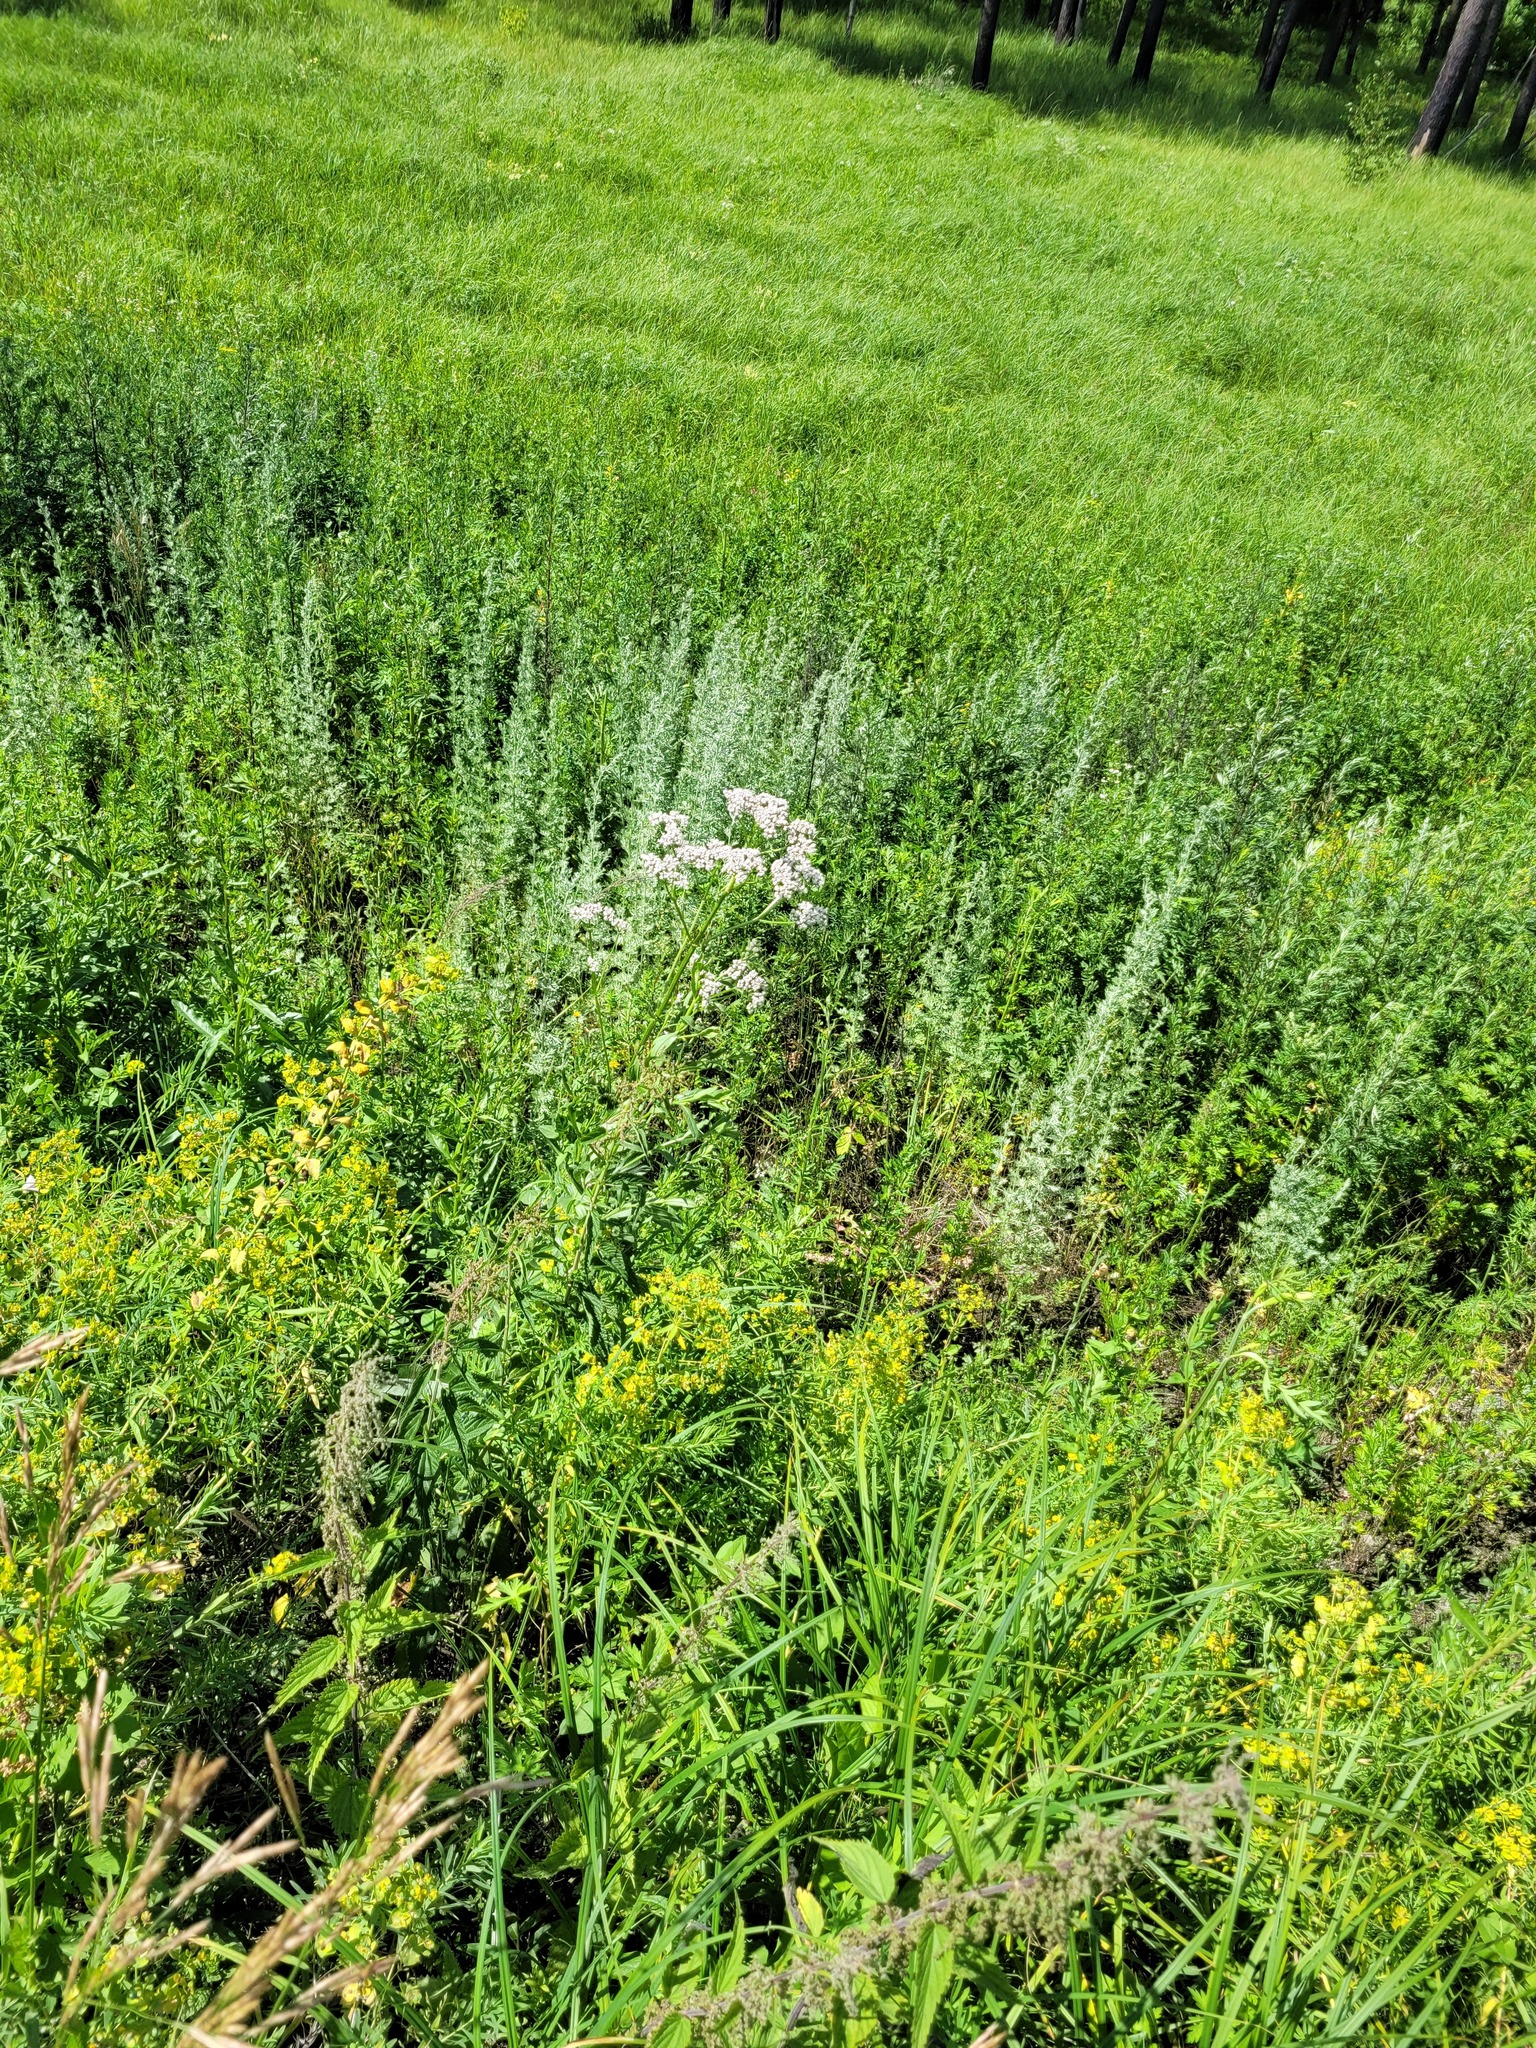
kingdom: Plantae
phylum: Tracheophyta
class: Magnoliopsida
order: Dipsacales
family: Caprifoliaceae
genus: Valeriana
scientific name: Valeriana officinalis
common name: Common valerian
